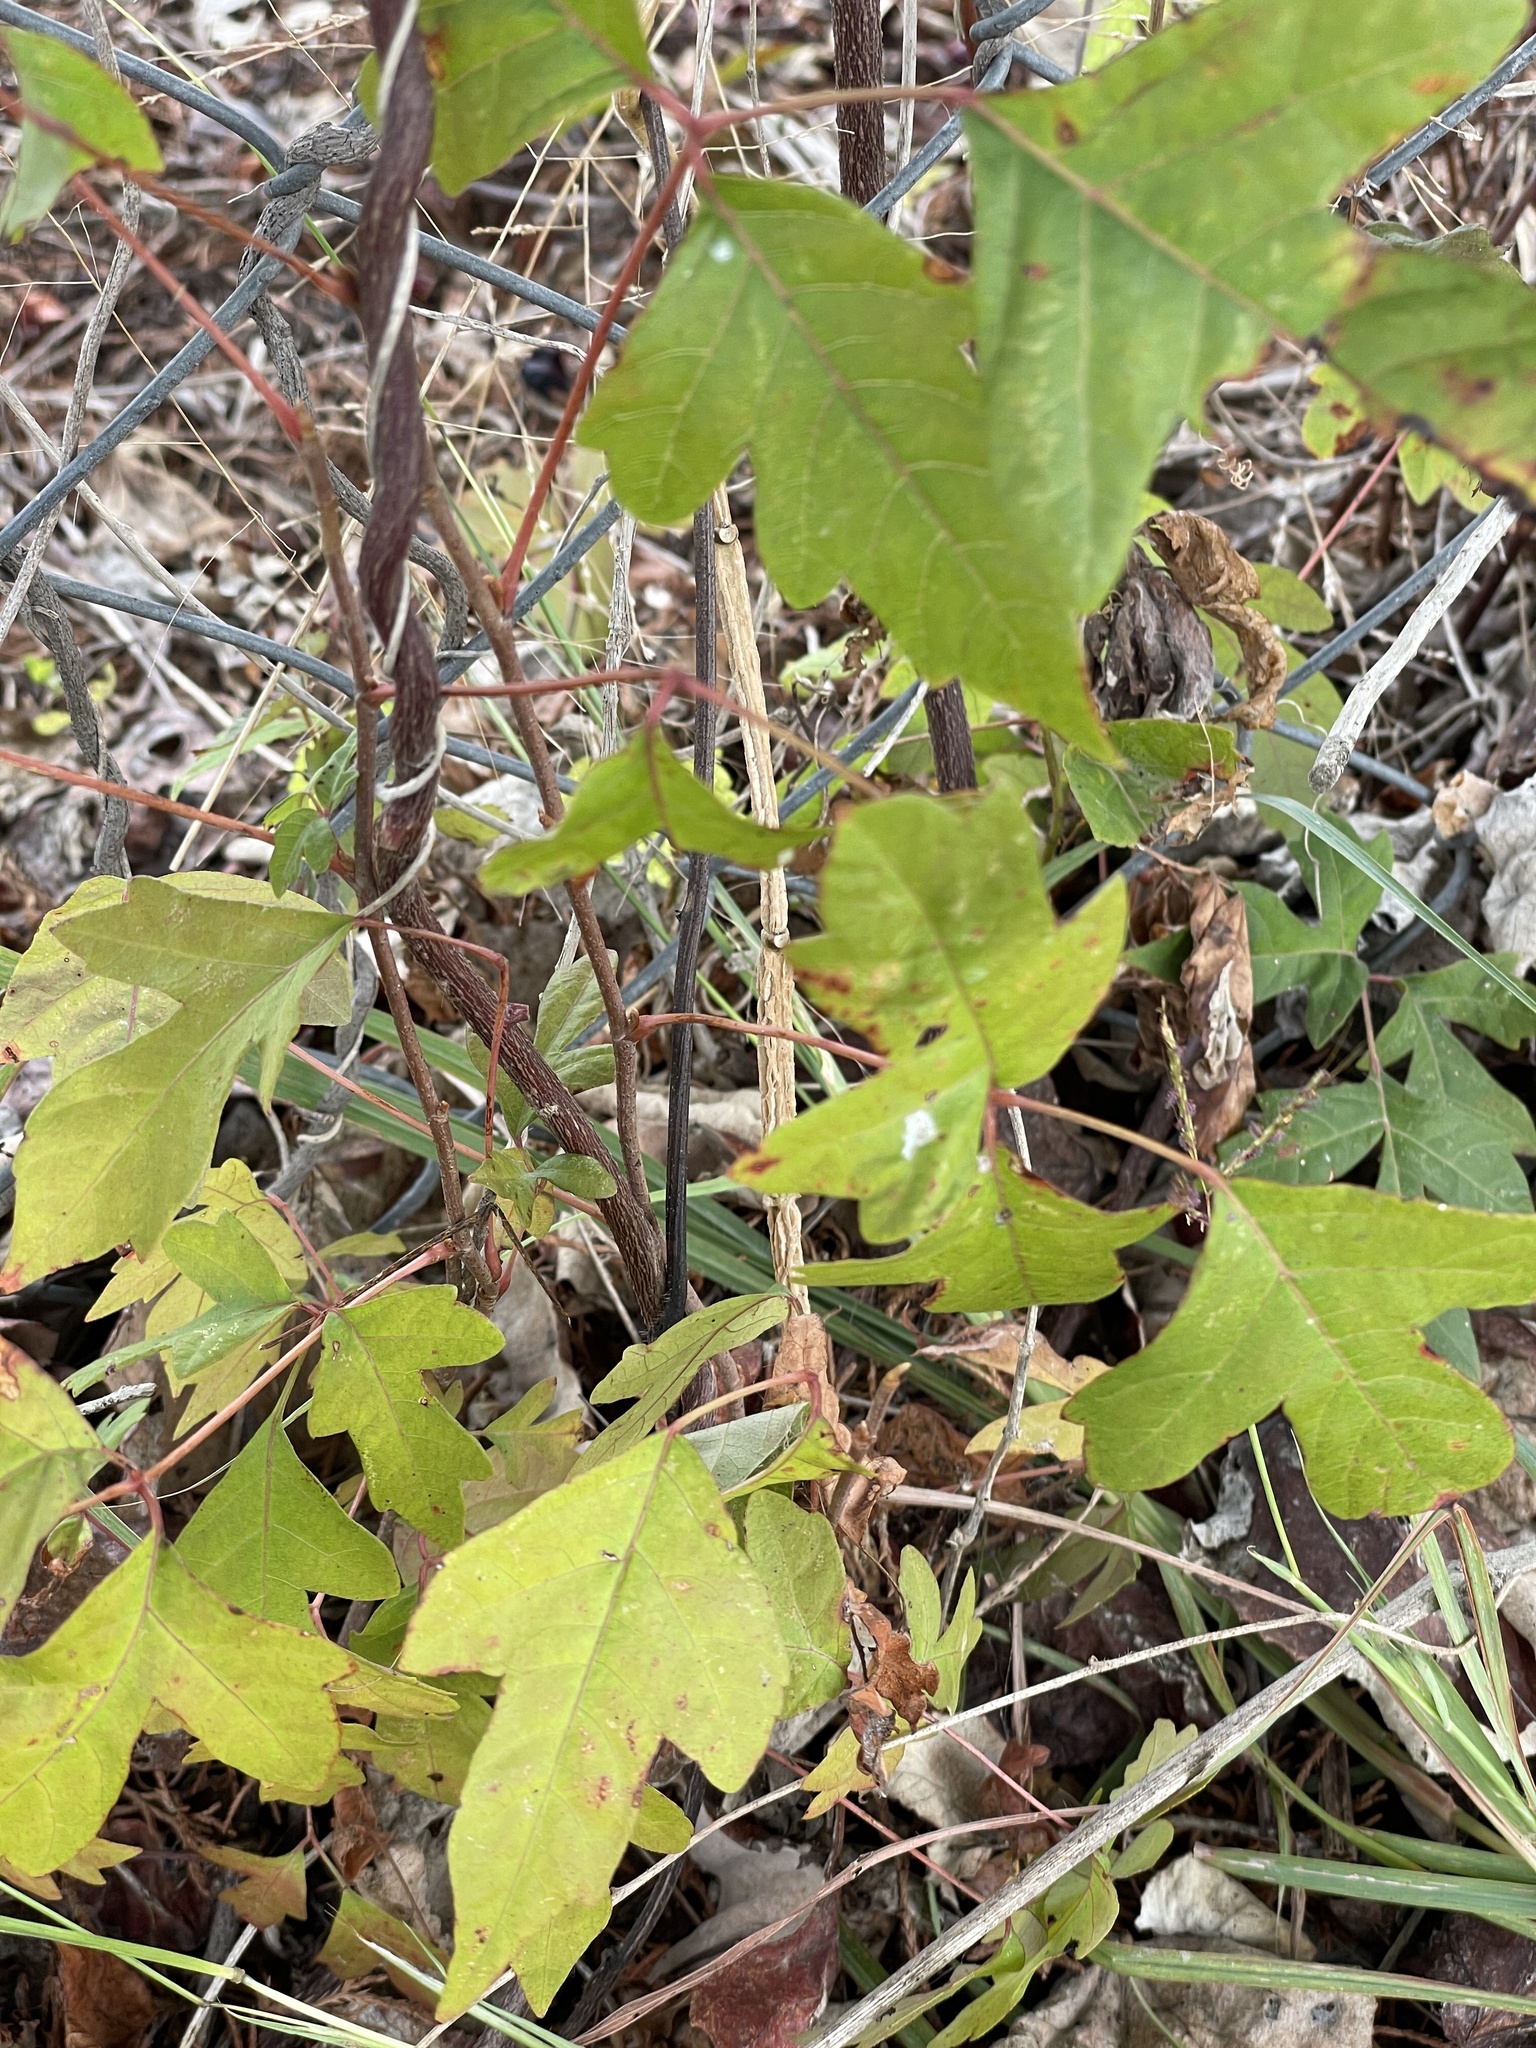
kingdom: Plantae
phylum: Tracheophyta
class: Magnoliopsida
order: Sapindales
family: Anacardiaceae
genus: Toxicodendron
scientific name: Toxicodendron radicans
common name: Poison ivy
